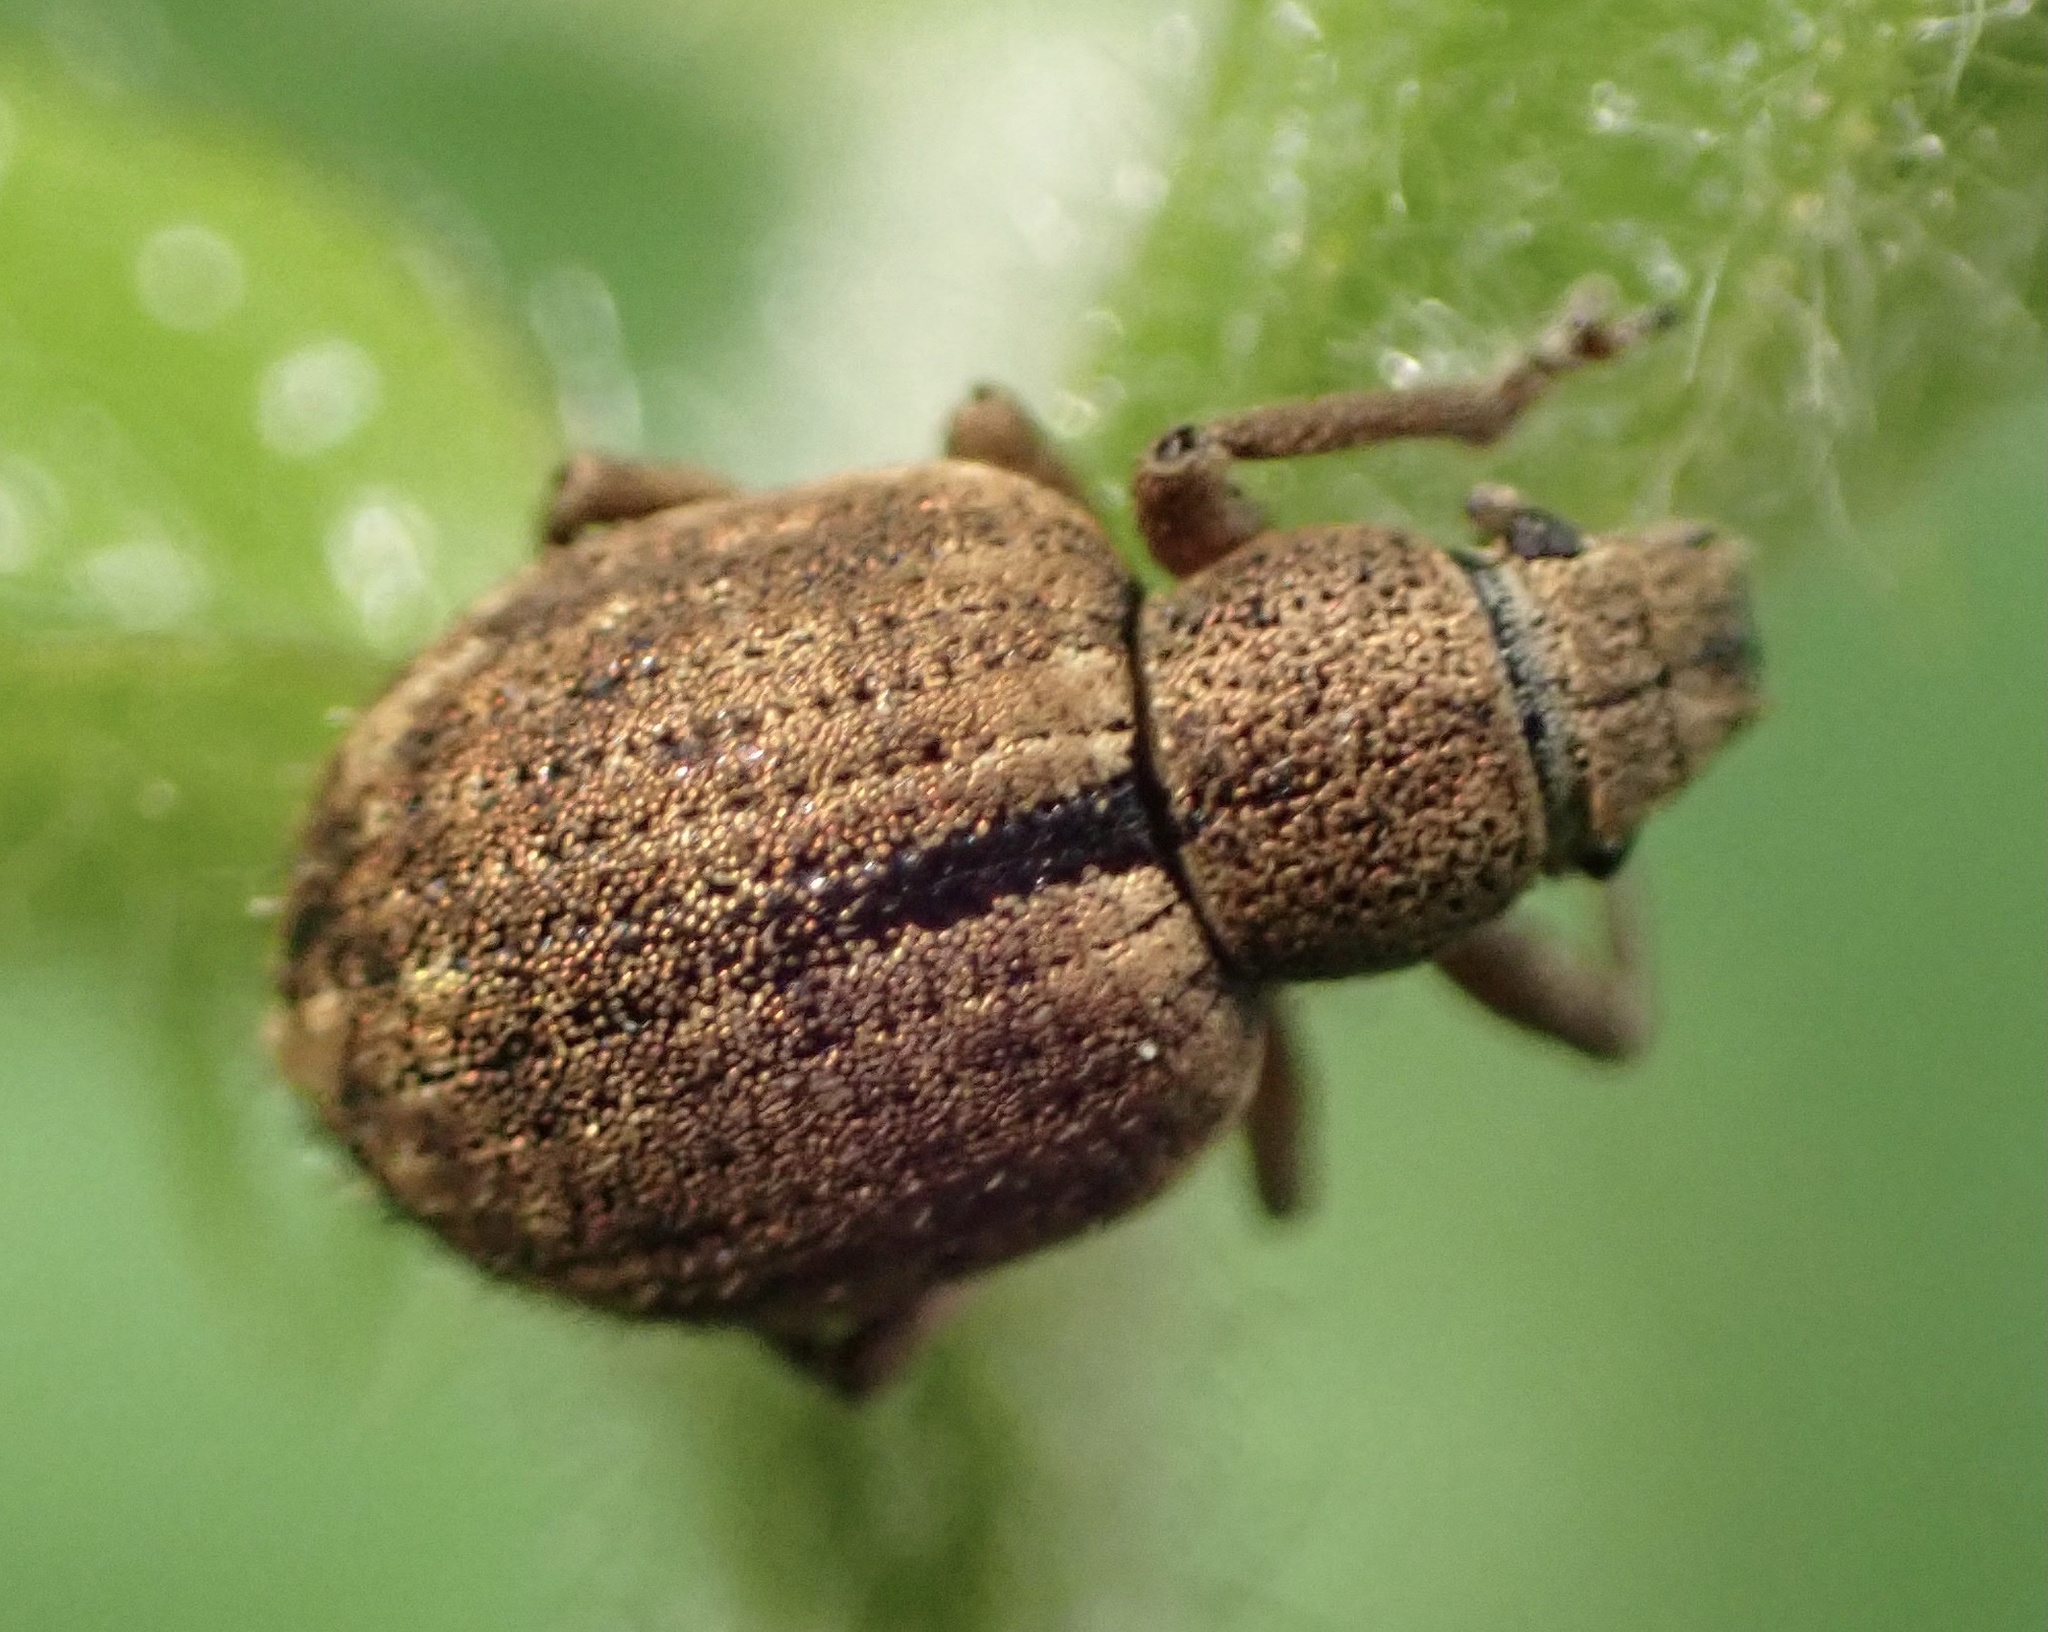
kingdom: Animalia
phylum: Arthropoda
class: Insecta
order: Coleoptera
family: Curculionidae
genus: Strophosoma
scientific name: Strophosoma melanogrammum
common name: Weevil
